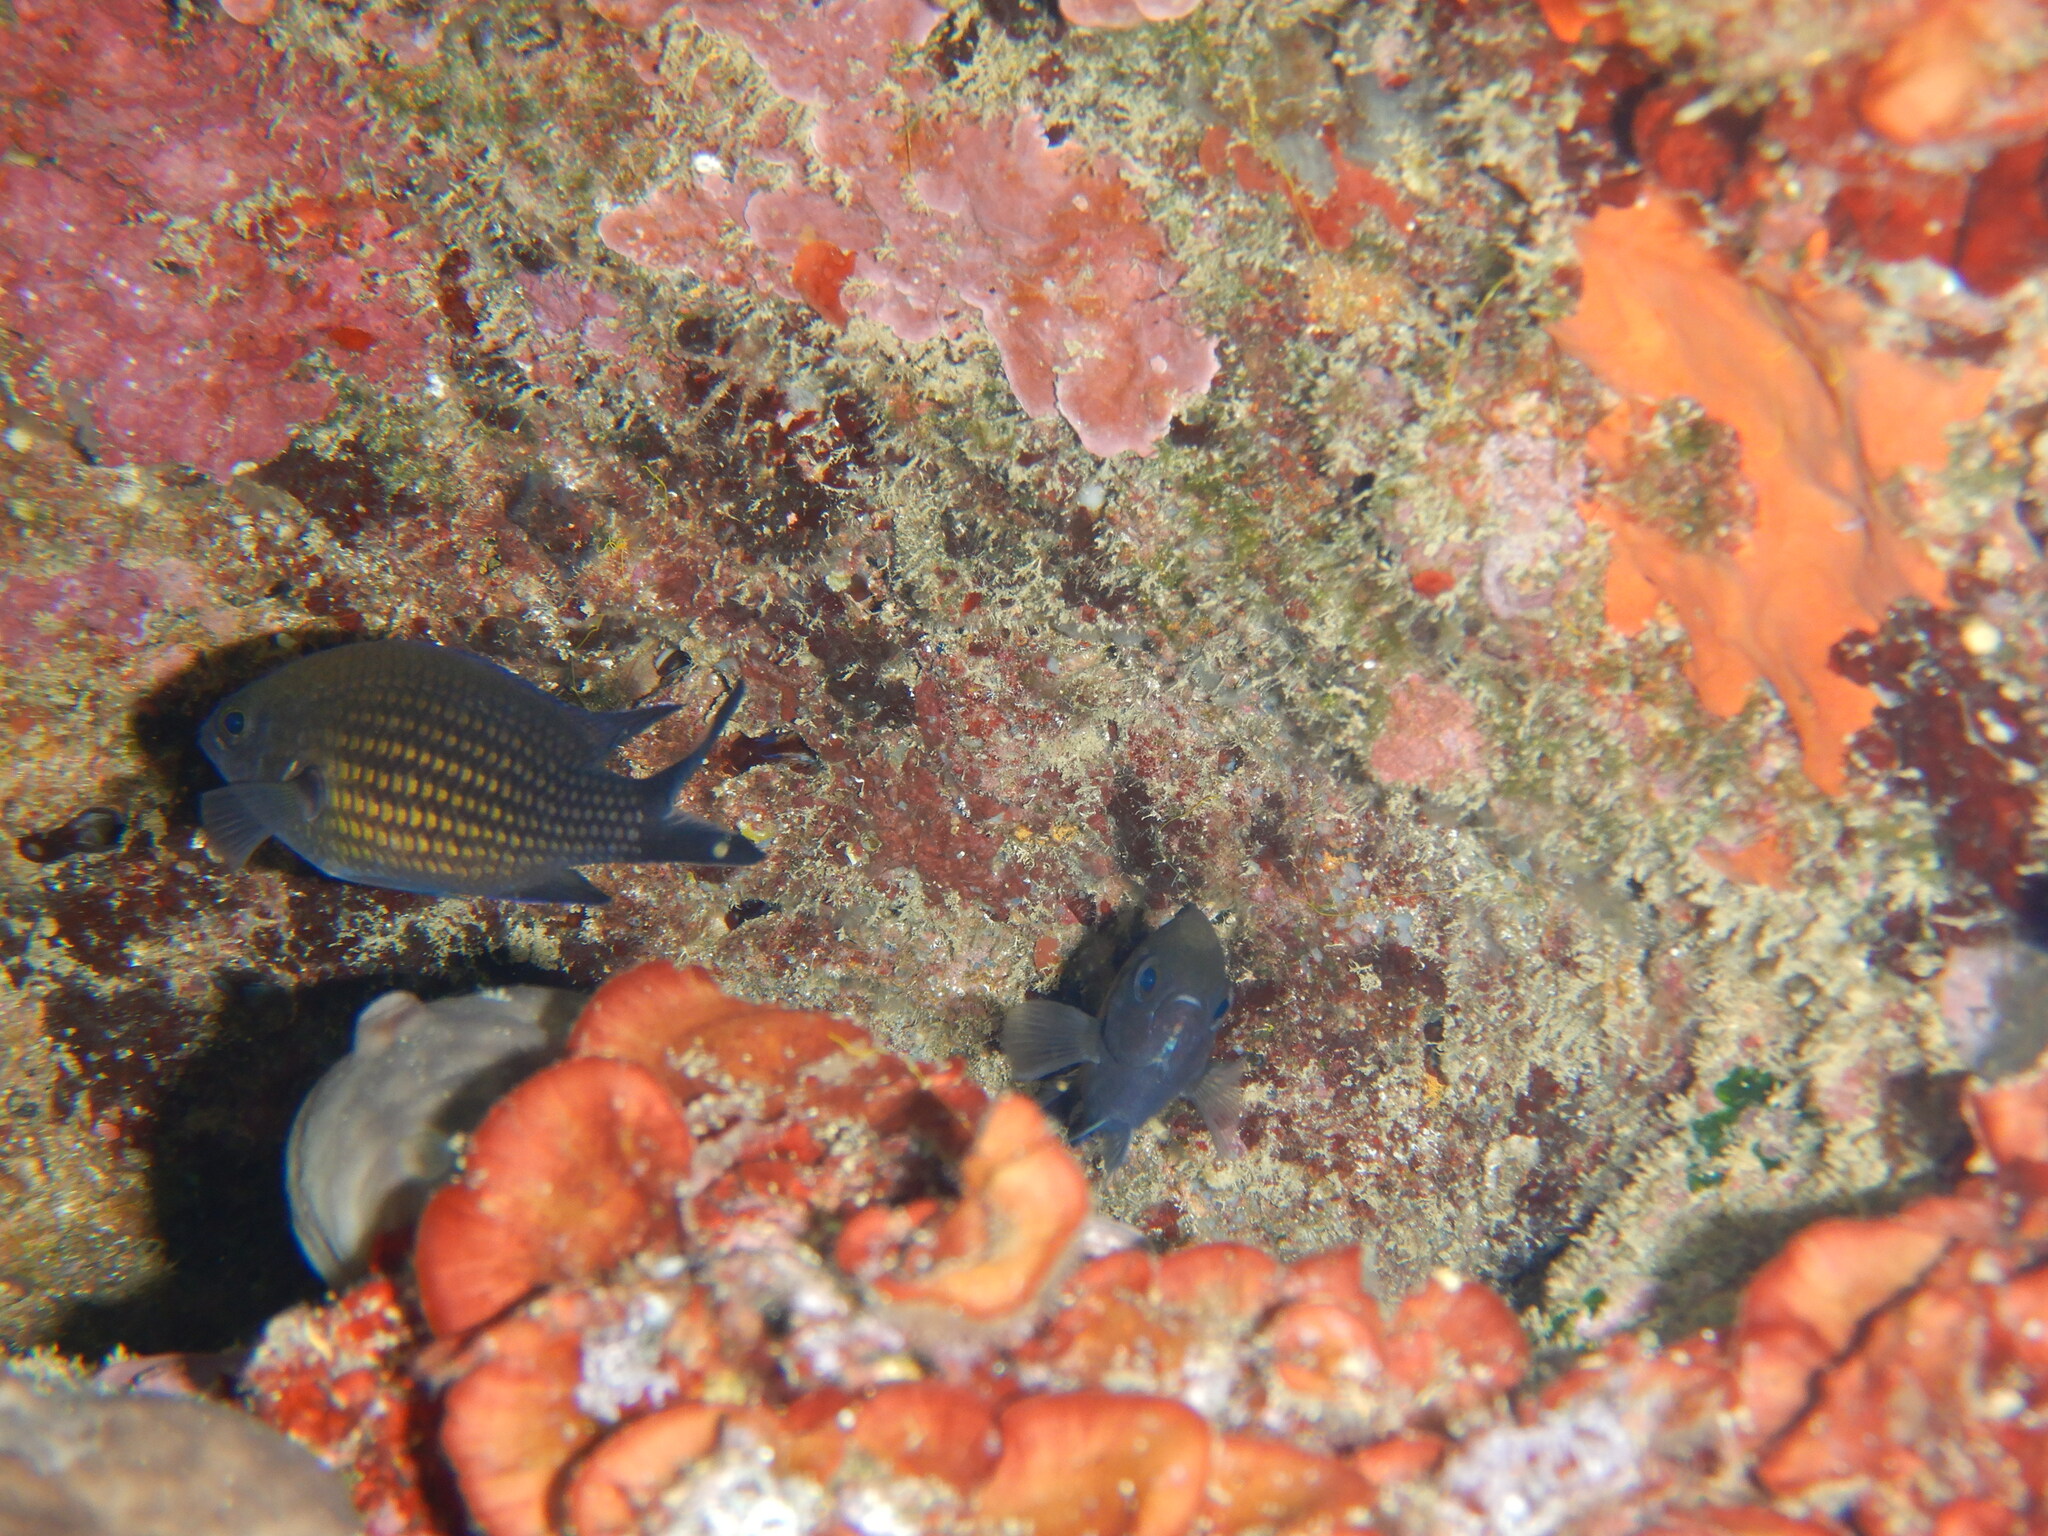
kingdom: Animalia
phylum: Chordata
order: Perciformes
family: Pomacentridae
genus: Chromis
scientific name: Chromis chromis
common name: Damselfish
